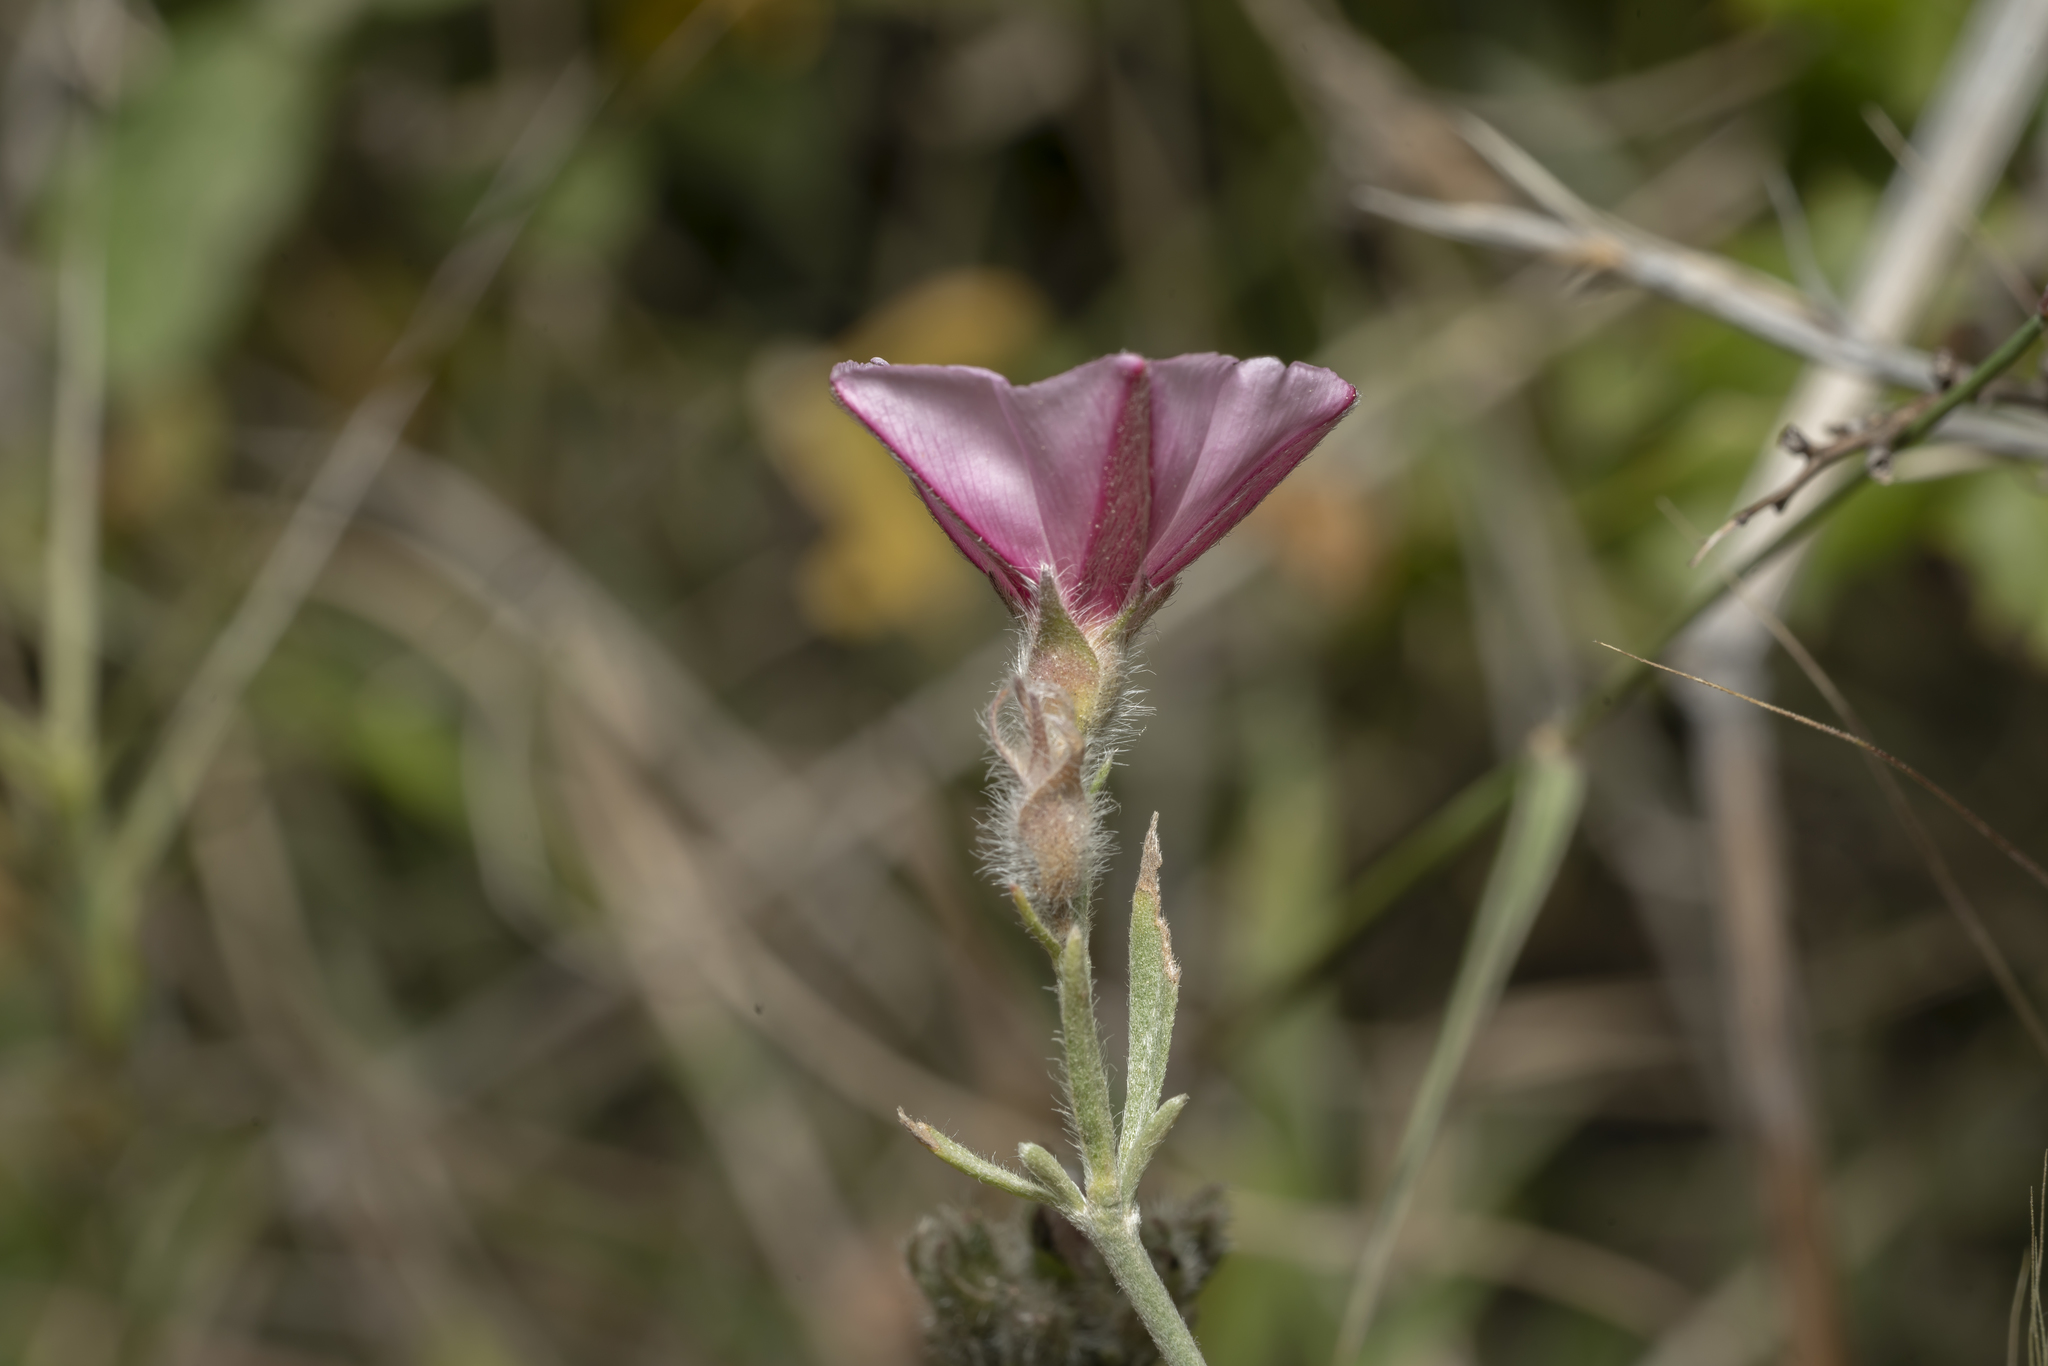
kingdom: Plantae
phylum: Tracheophyta
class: Magnoliopsida
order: Solanales
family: Convolvulaceae
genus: Convolvulus
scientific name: Convolvulus oleifolius
